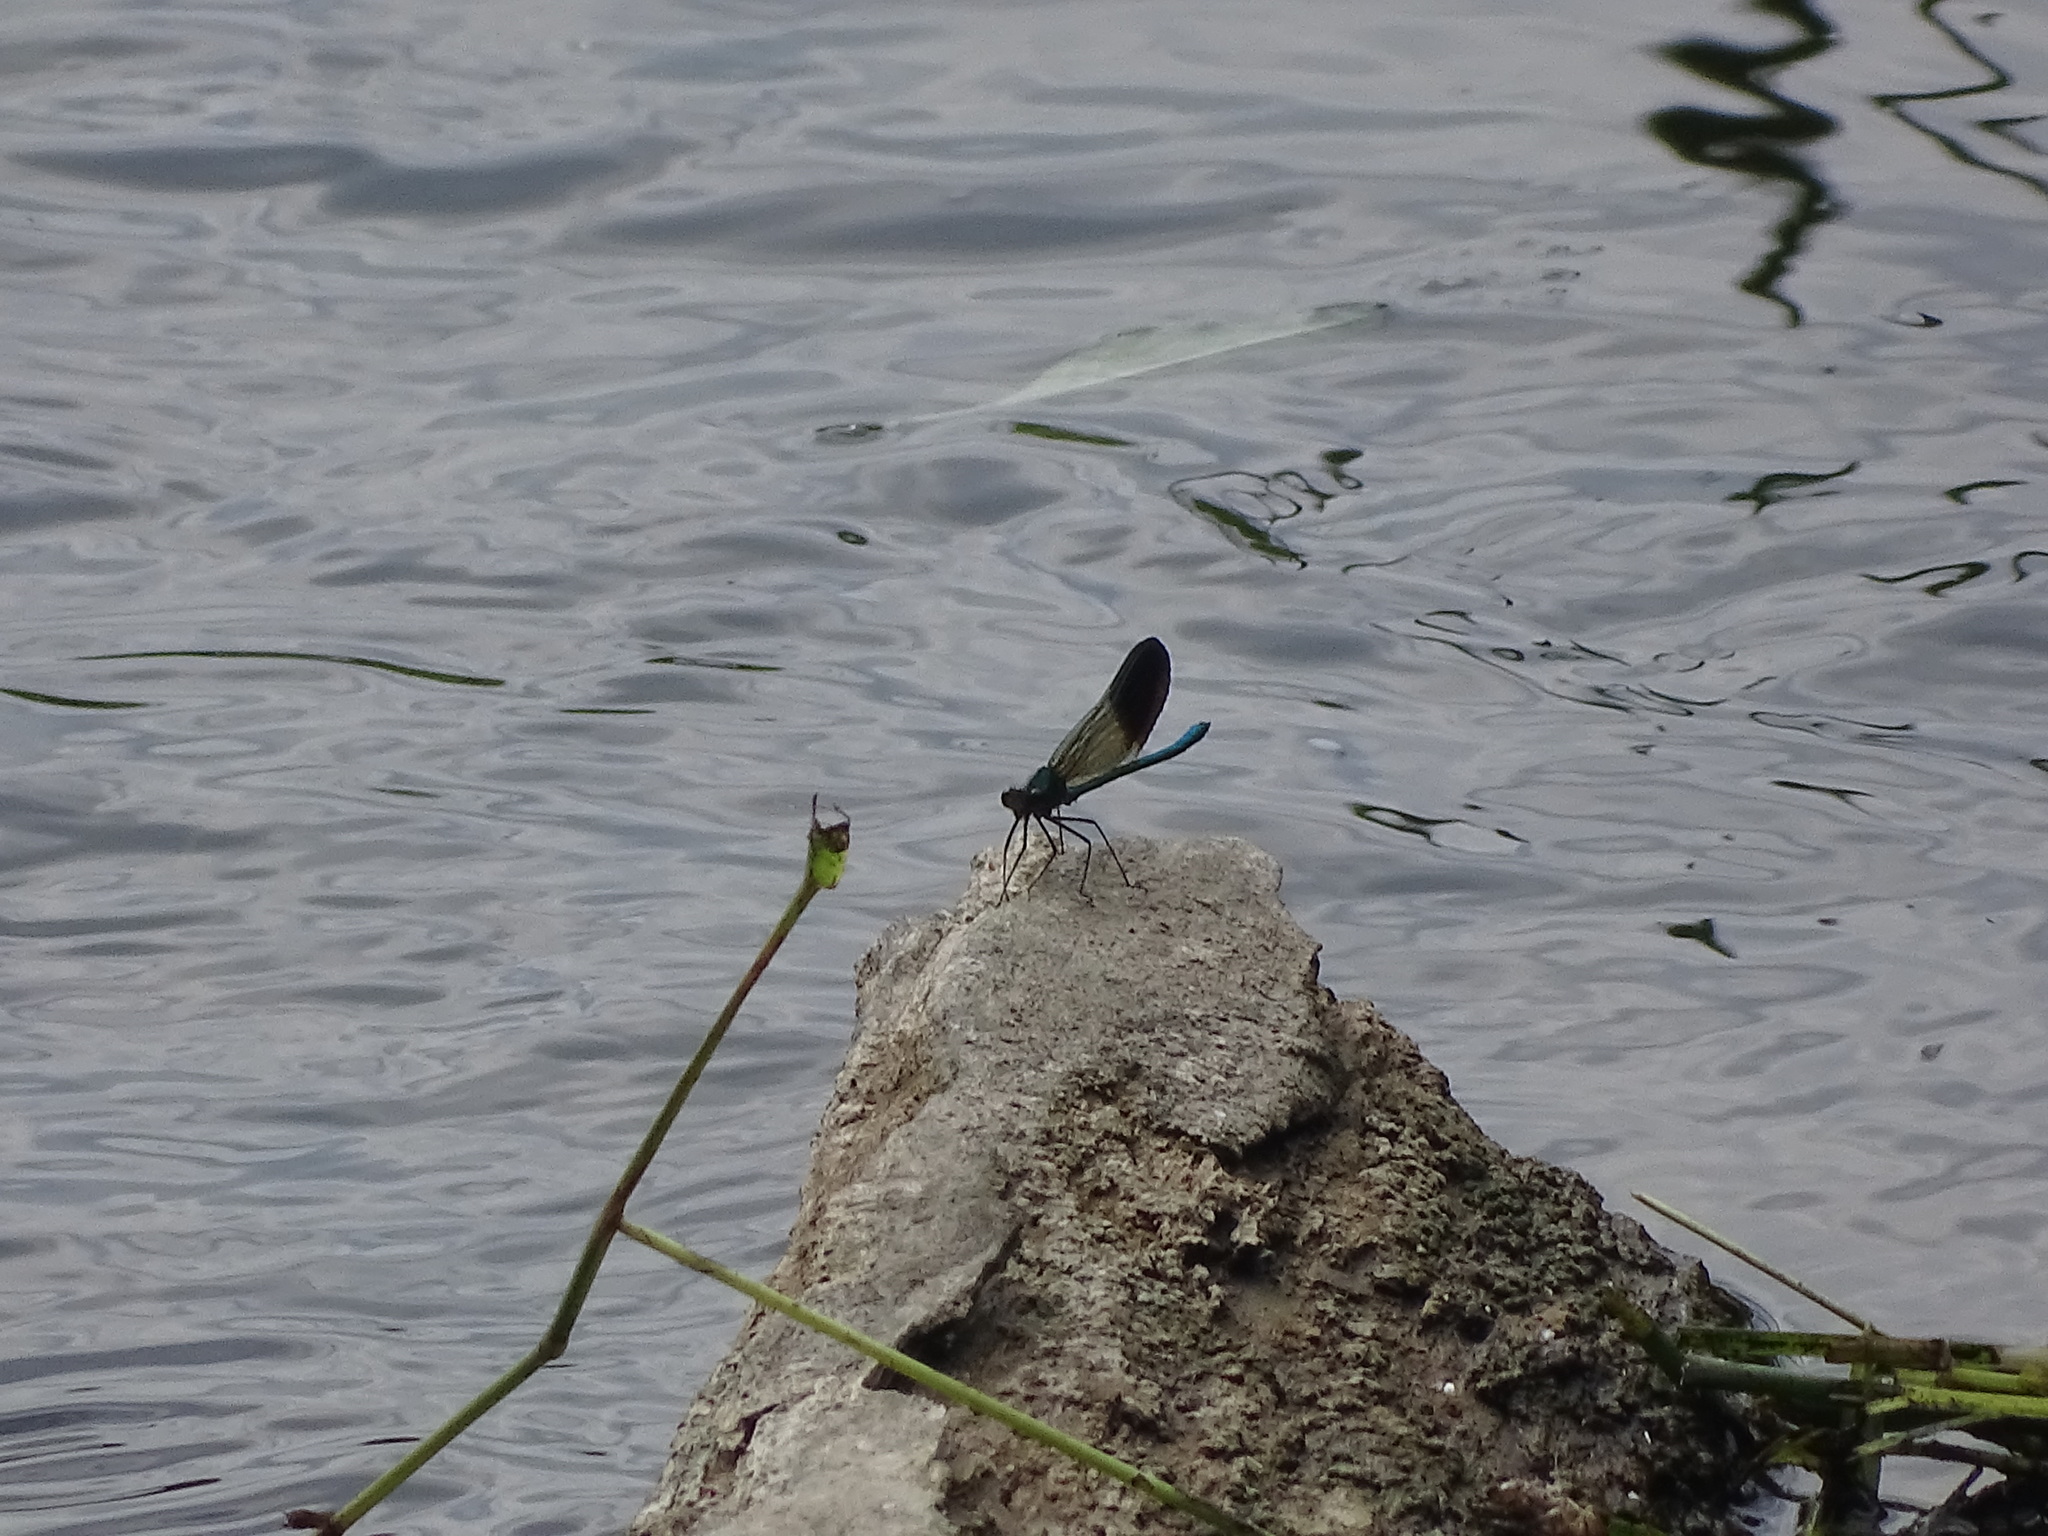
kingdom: Animalia
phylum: Arthropoda
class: Insecta
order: Odonata
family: Calopterygidae
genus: Calopteryx
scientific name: Calopteryx aequabilis
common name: River jewelwing
